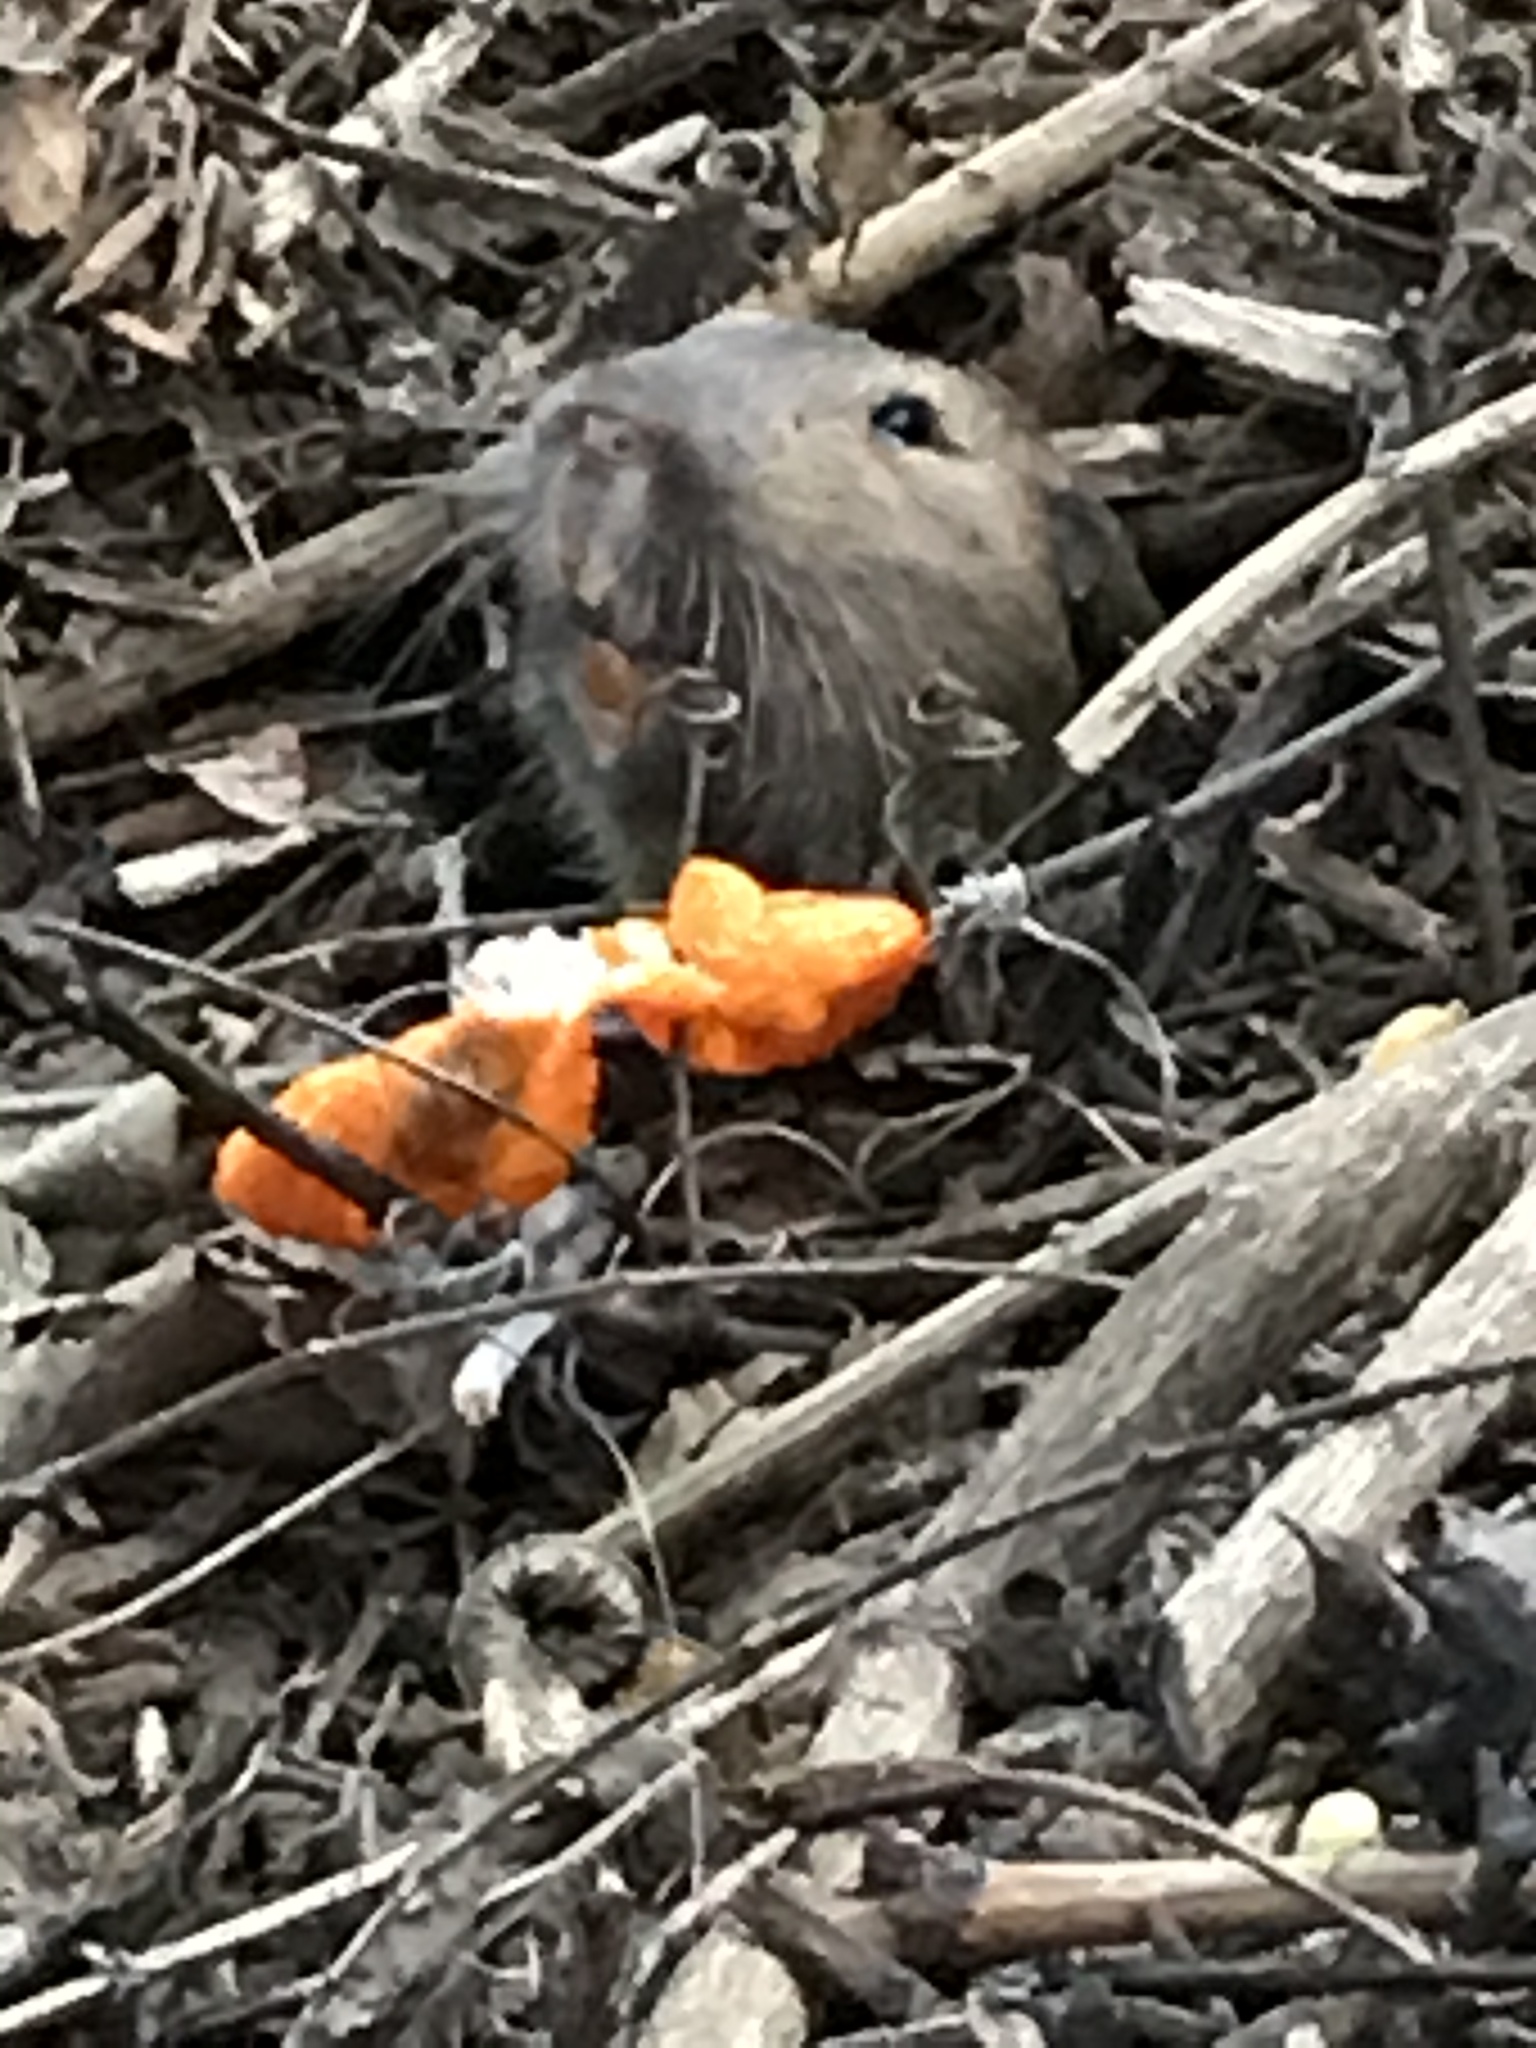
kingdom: Animalia
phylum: Chordata
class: Mammalia
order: Rodentia
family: Geomyidae
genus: Thomomys
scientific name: Thomomys bottae
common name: Botta's pocket gopher
